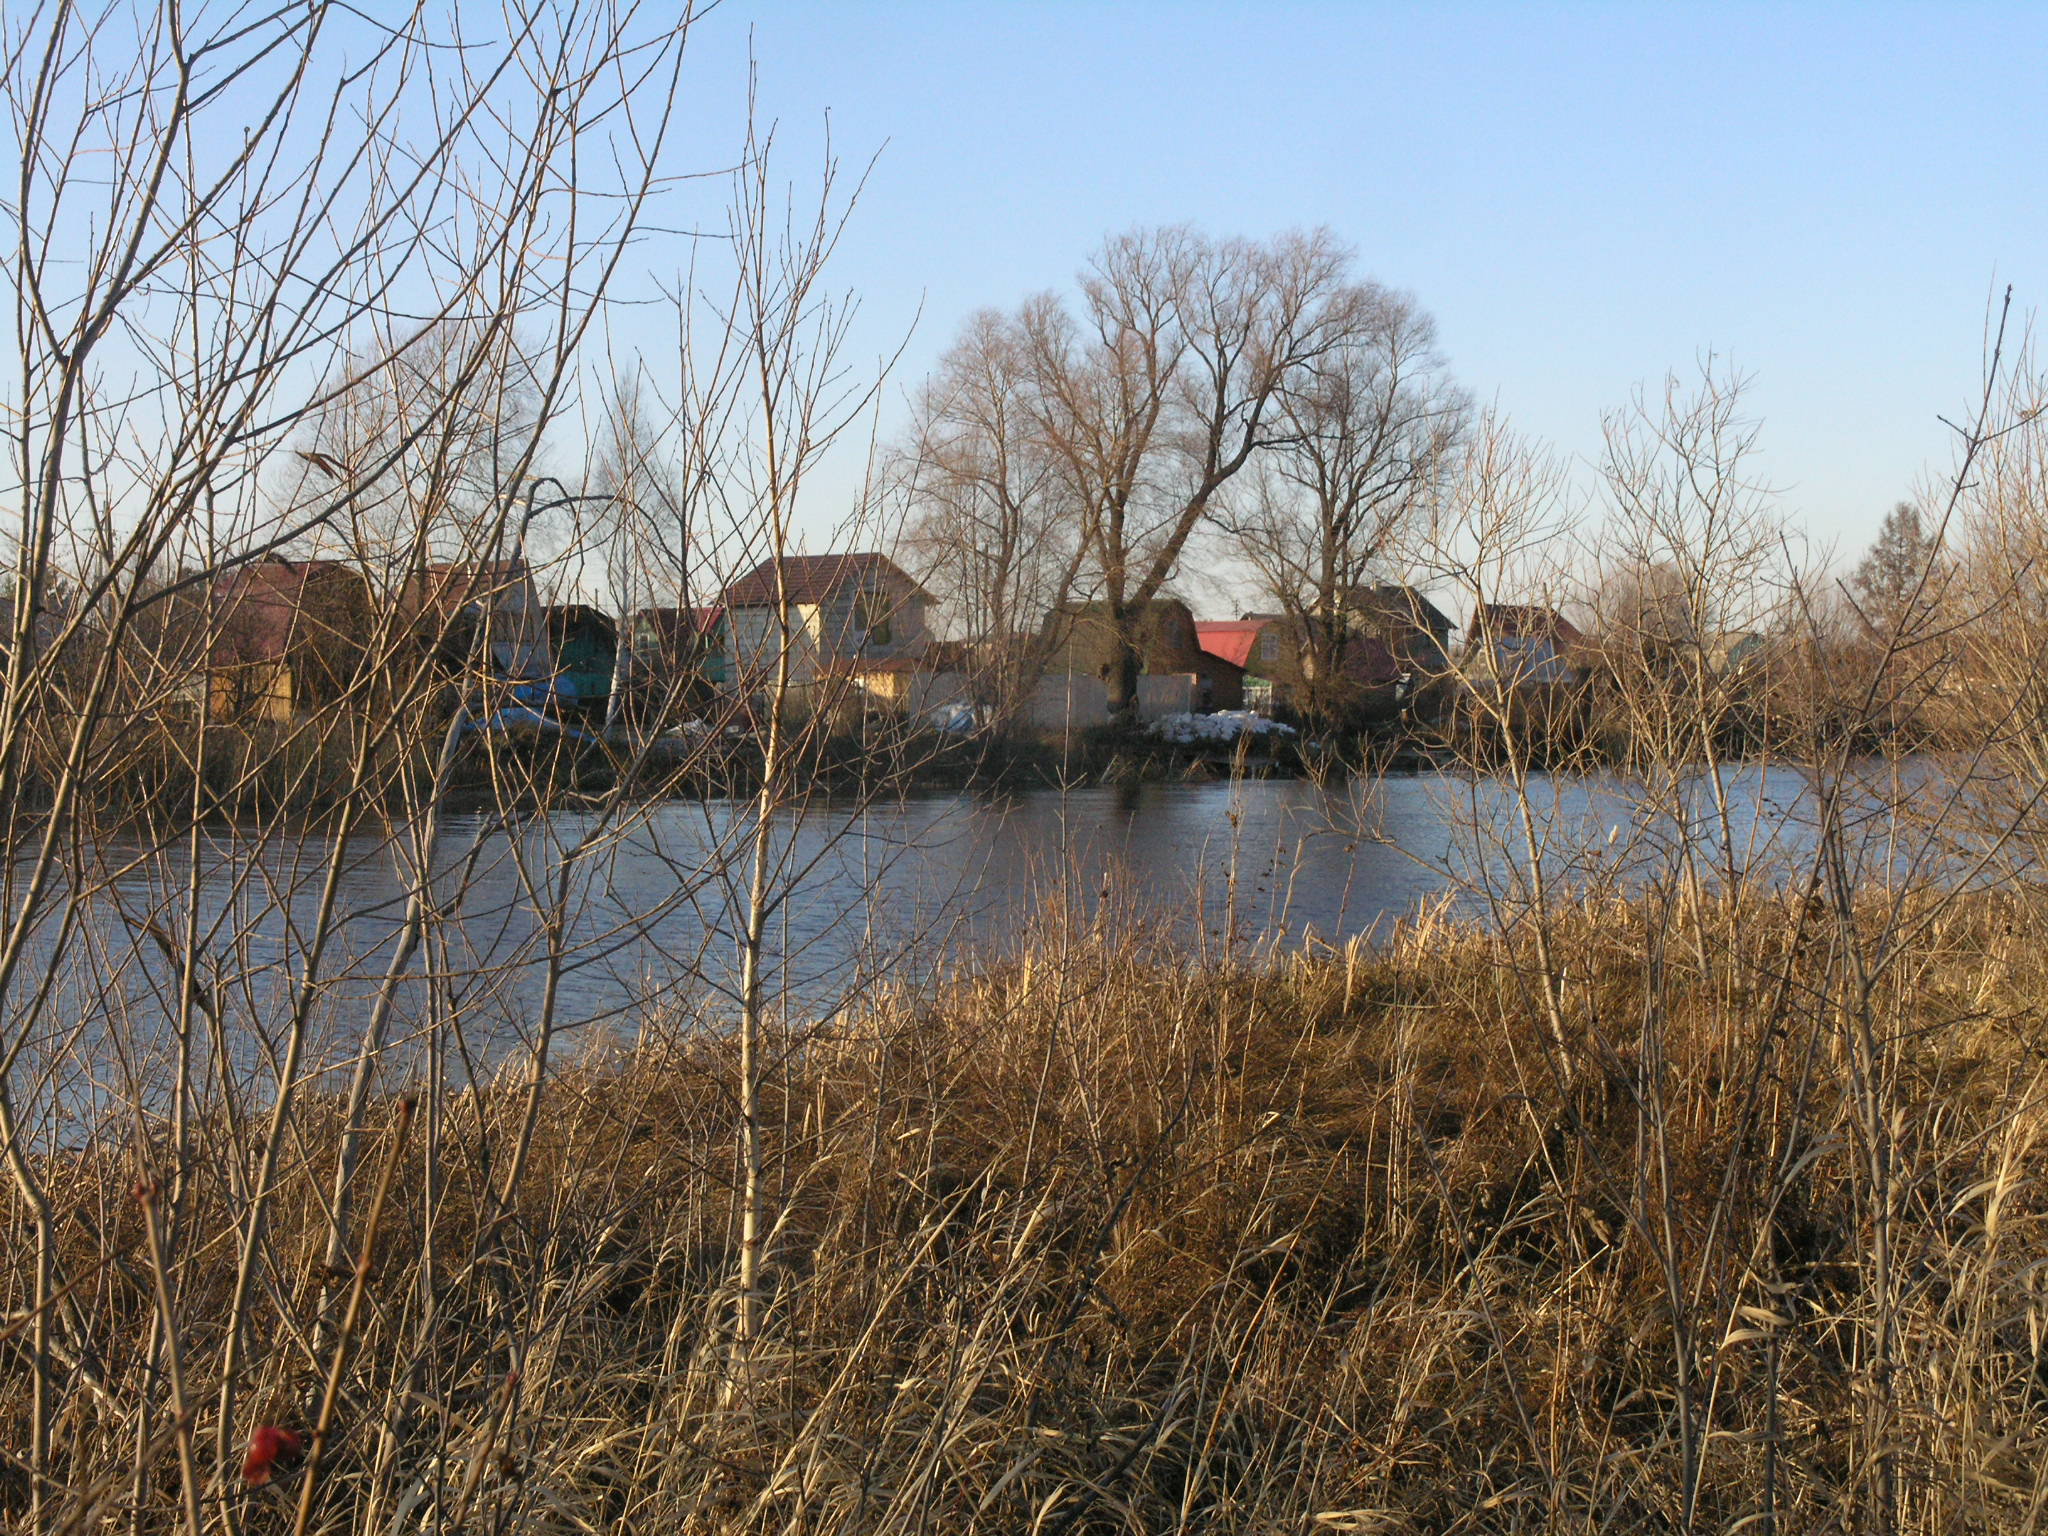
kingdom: Plantae
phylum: Tracheophyta
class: Magnoliopsida
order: Malpighiales
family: Salicaceae
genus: Salix
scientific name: Salix alba
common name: White willow
